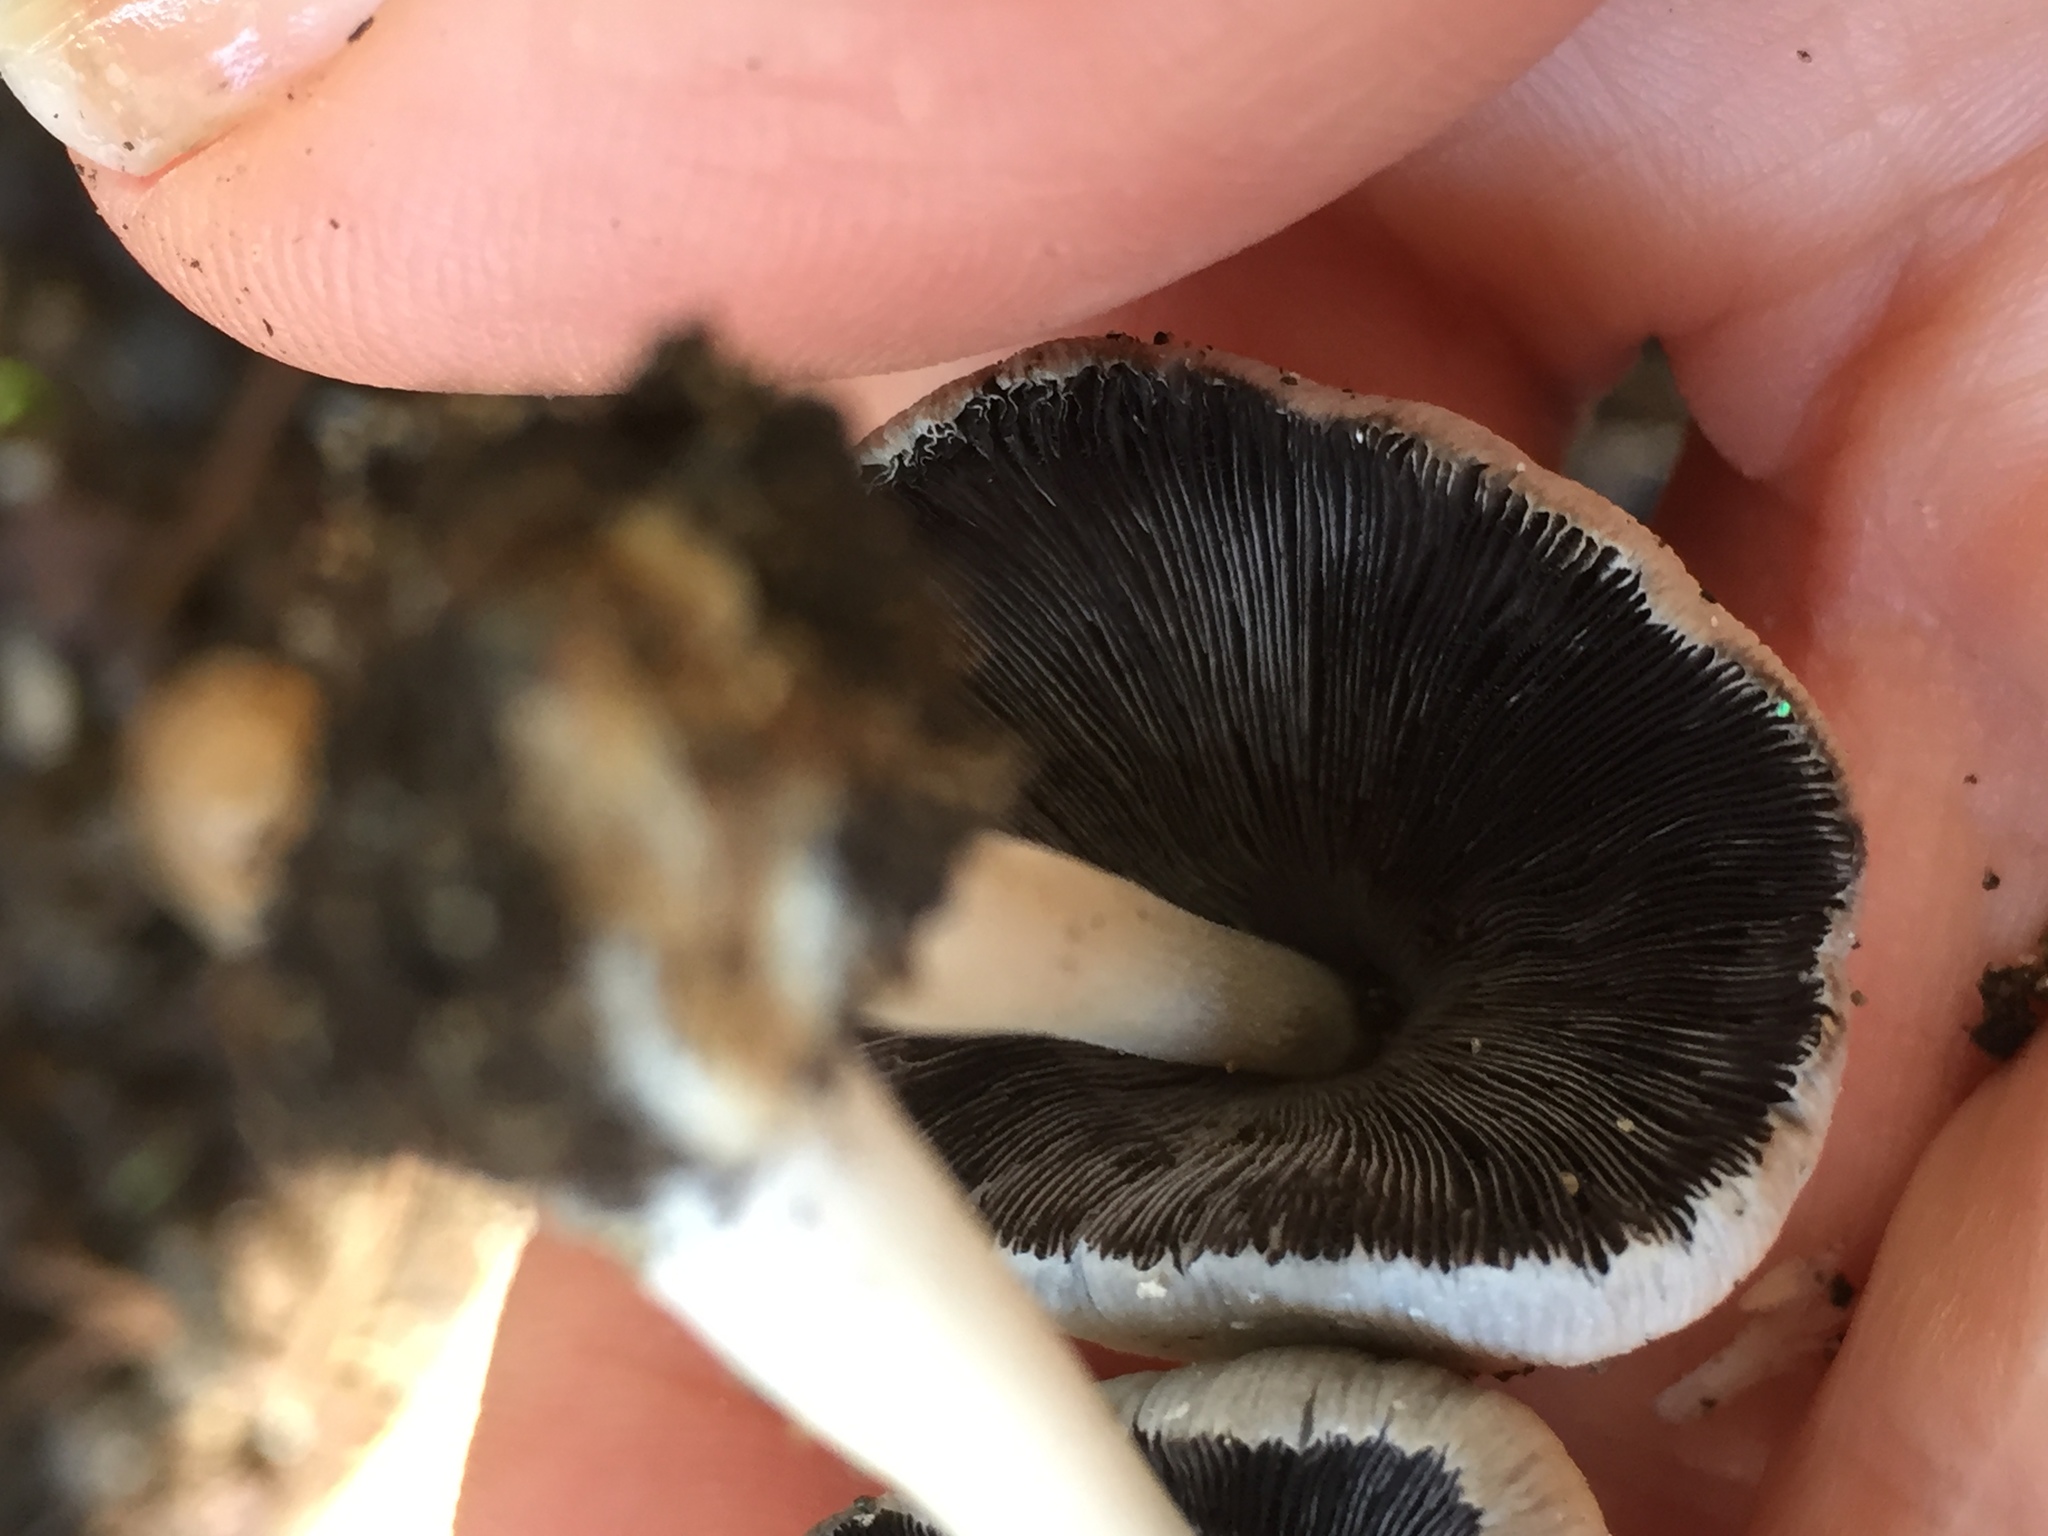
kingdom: Fungi
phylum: Basidiomycota
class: Agaricomycetes
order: Agaricales
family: Psathyrellaceae
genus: Coprinellus
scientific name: Coprinellus micaceus
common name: Glistening ink-cap
